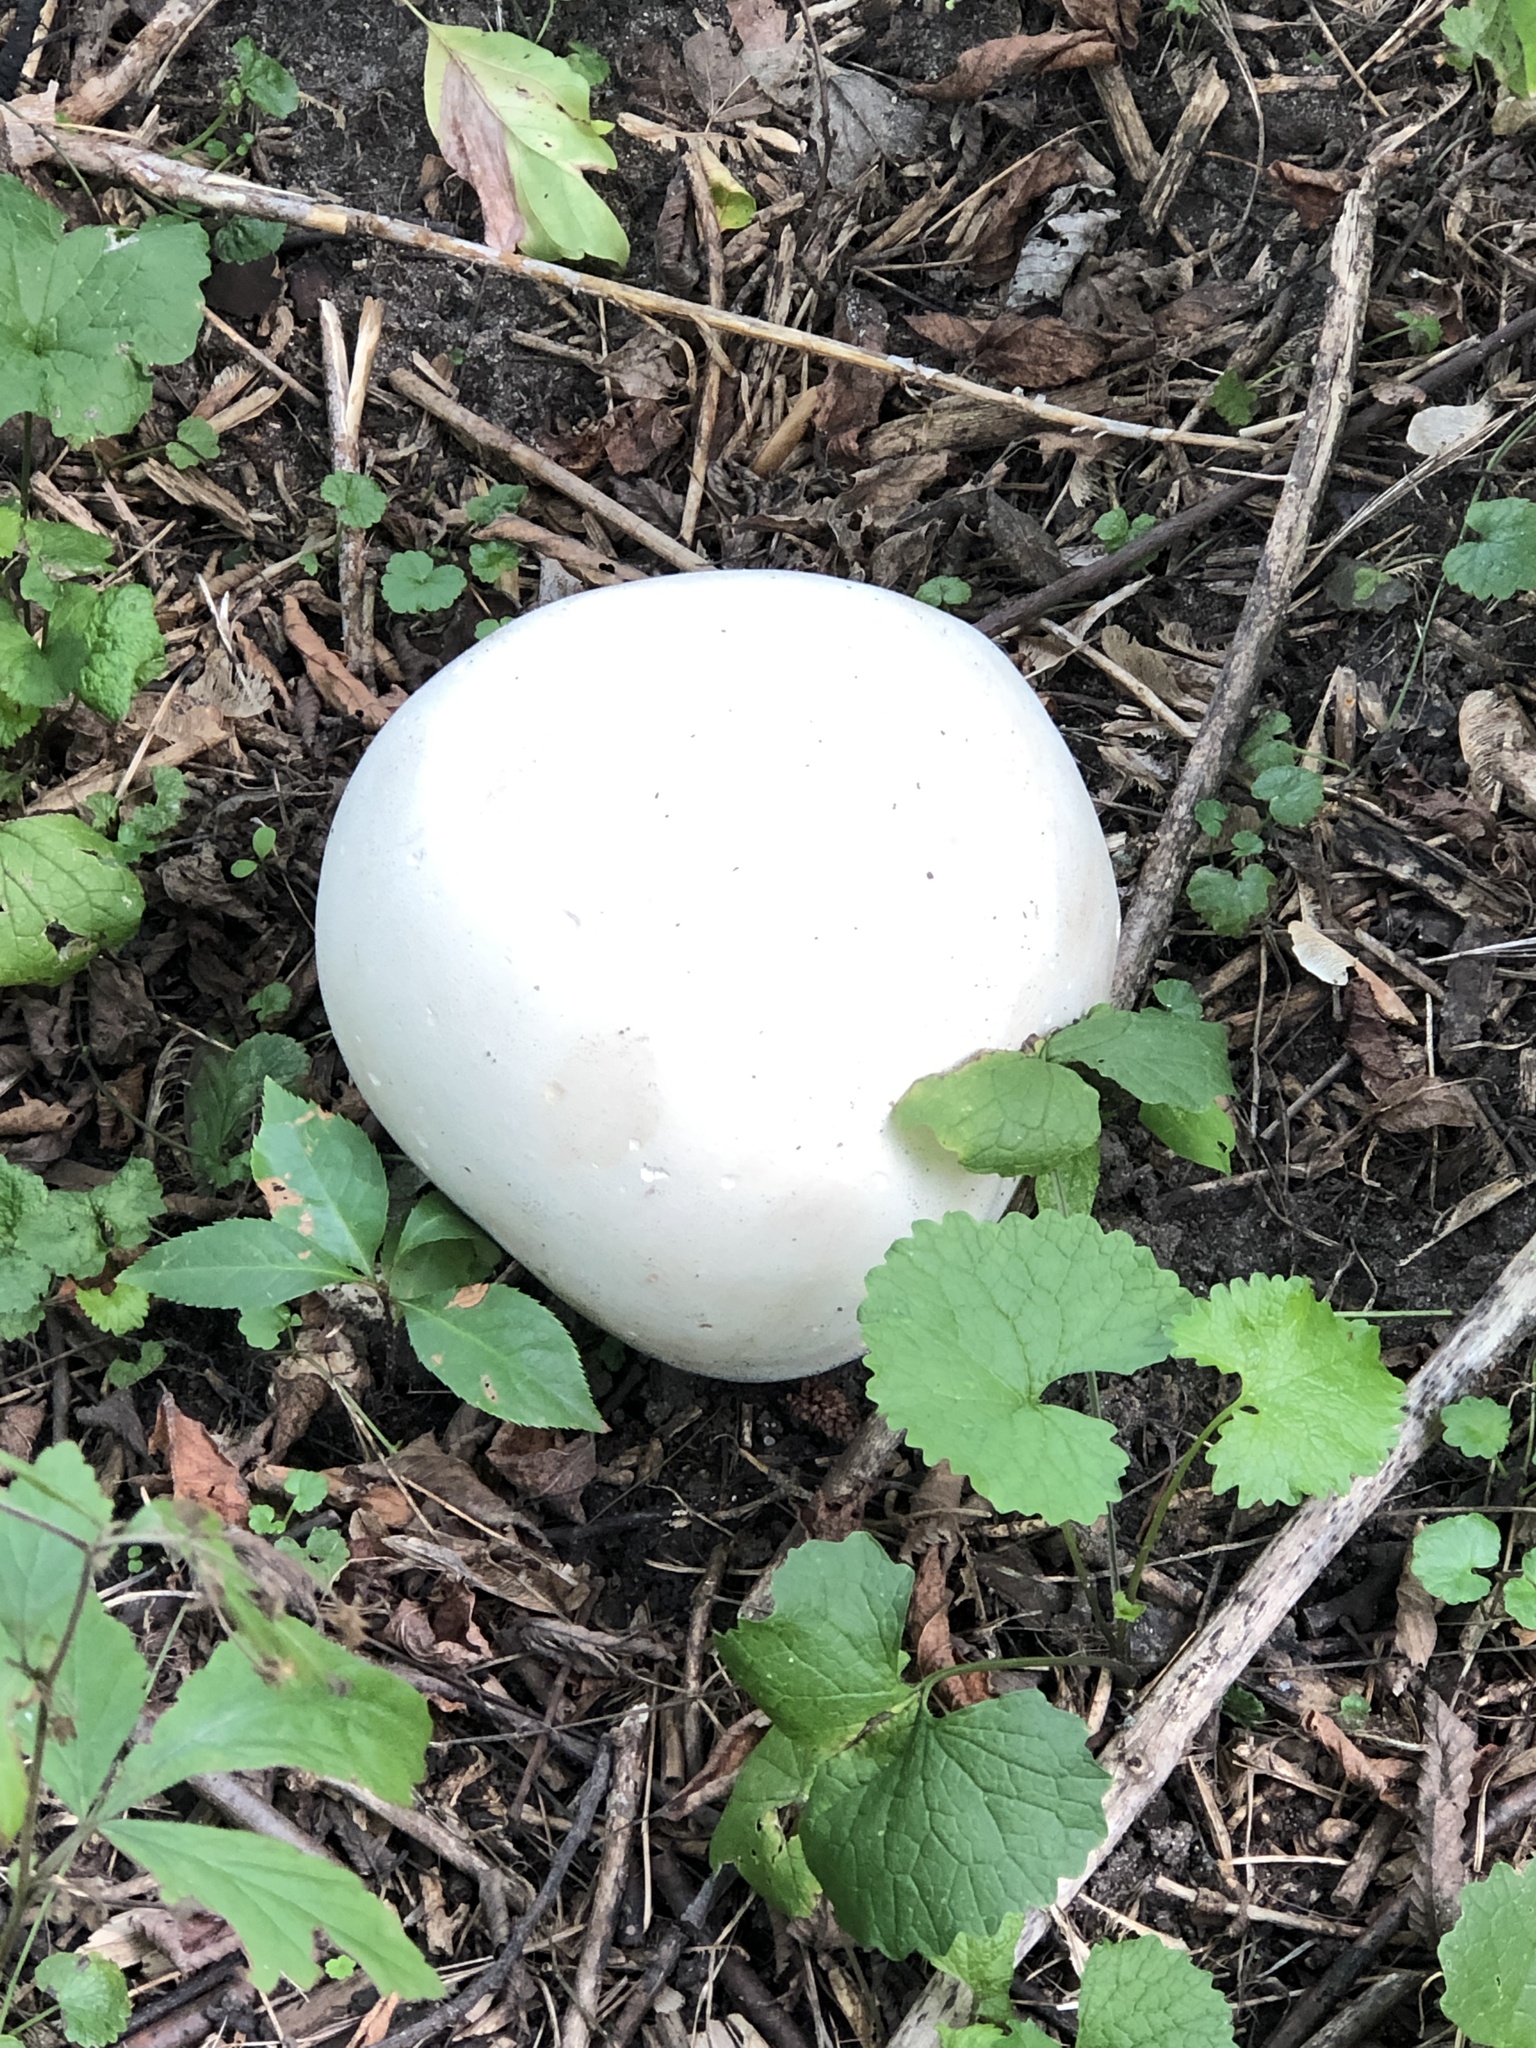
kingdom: Fungi
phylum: Basidiomycota
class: Agaricomycetes
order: Agaricales
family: Lycoperdaceae
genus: Calvatia
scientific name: Calvatia gigantea
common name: Giant puffball
